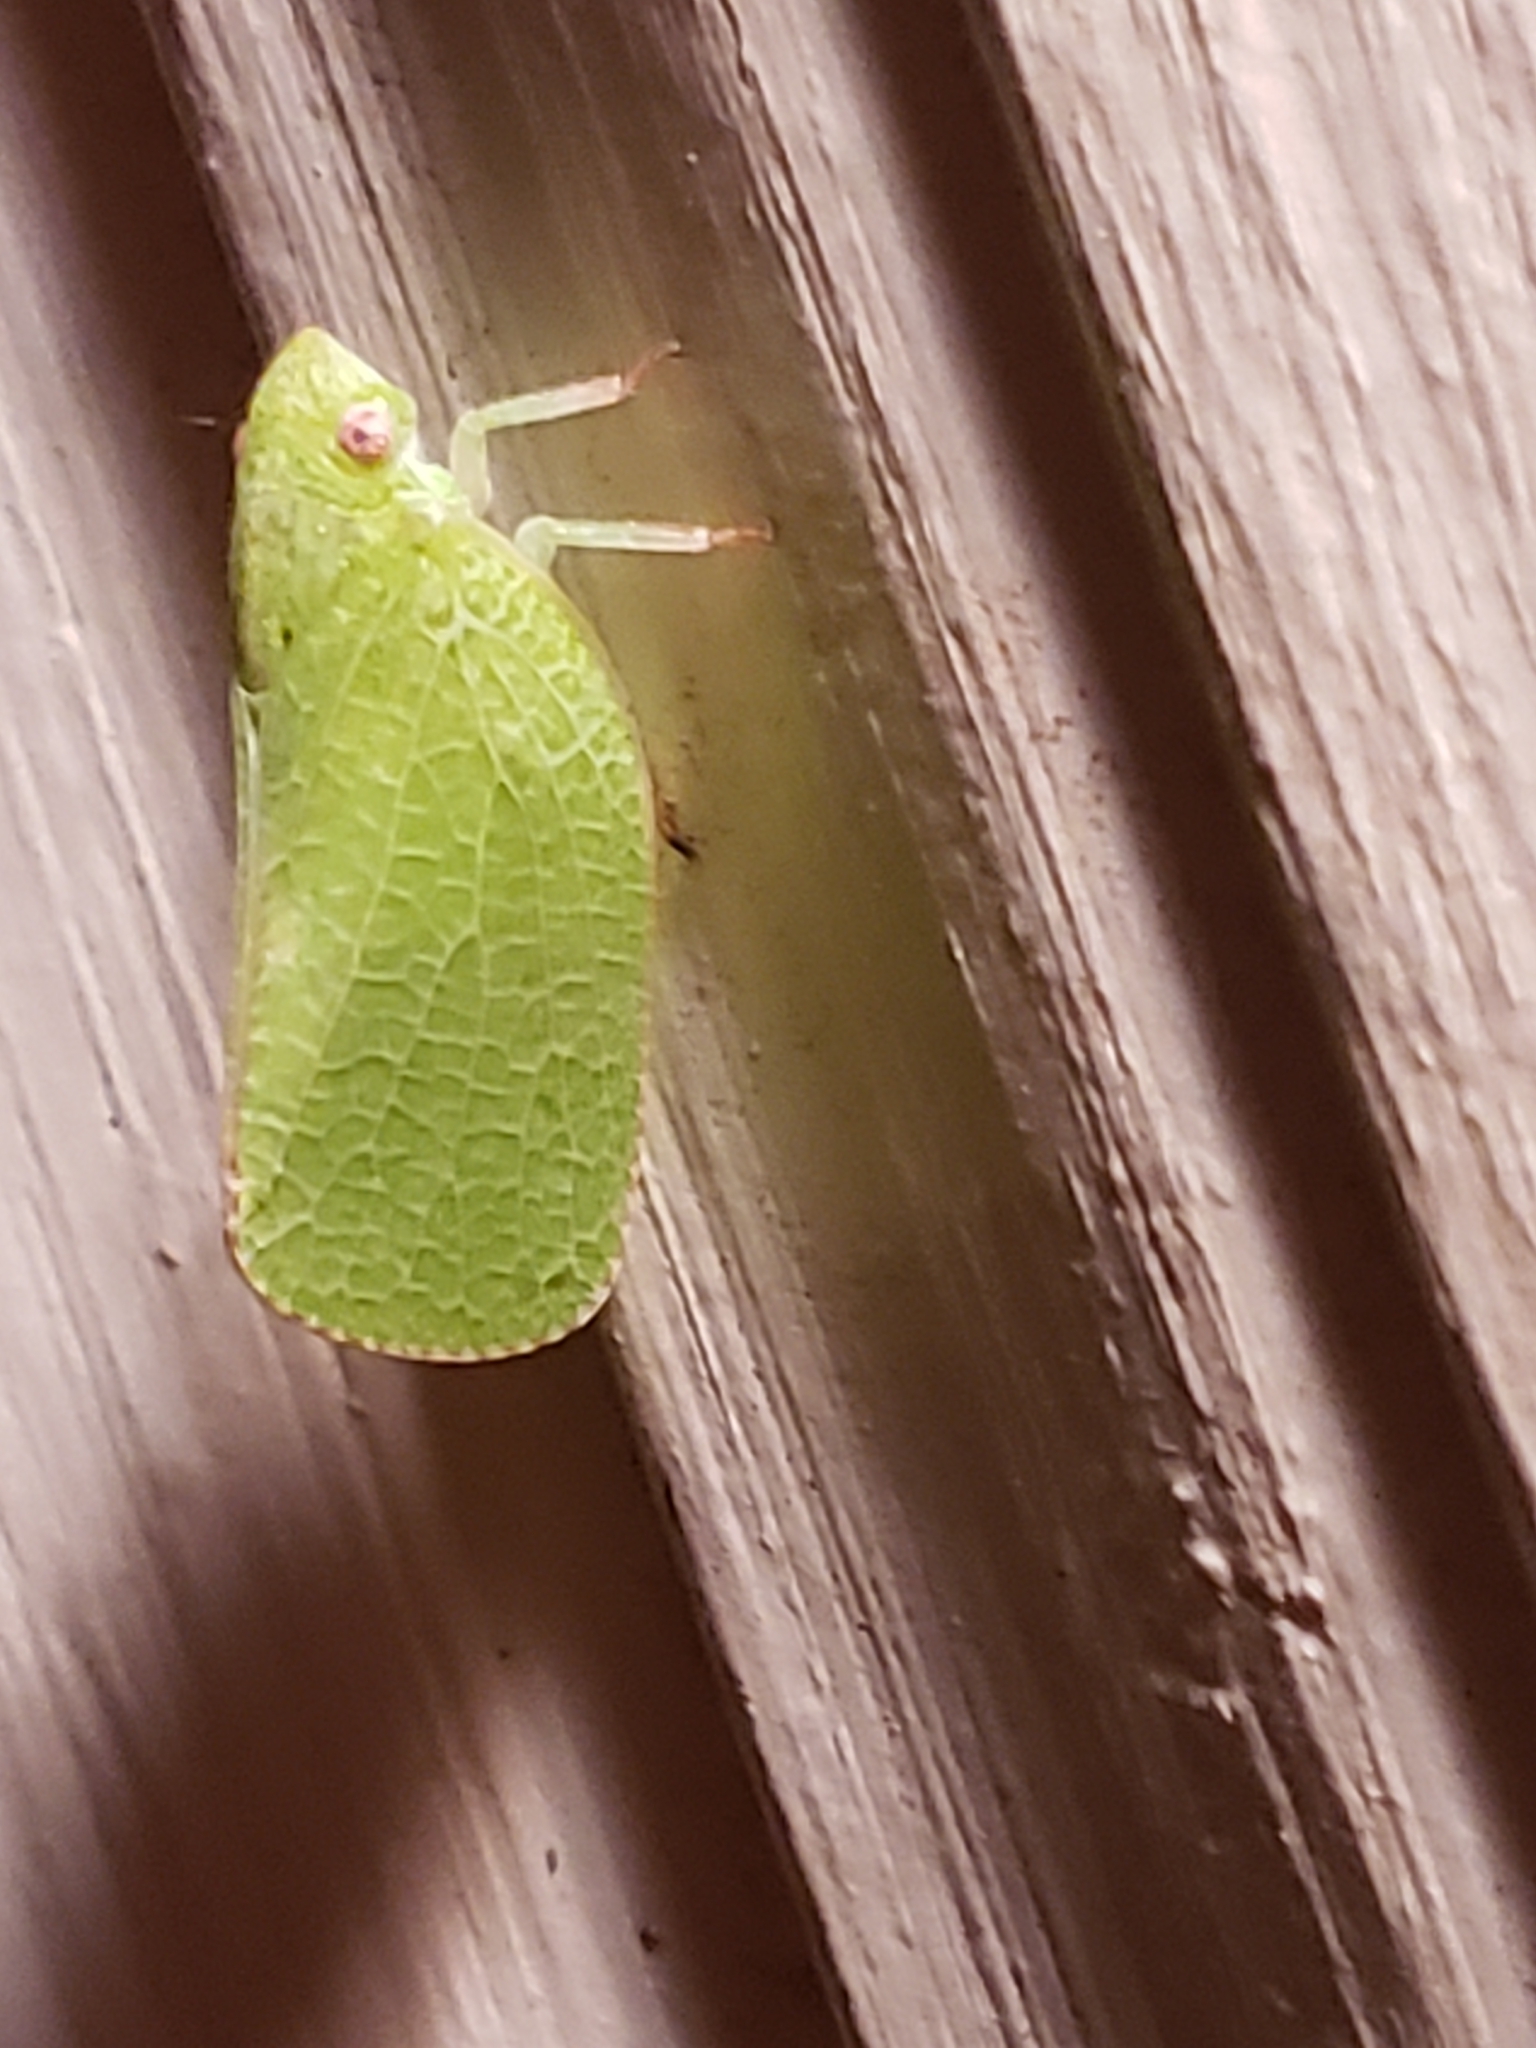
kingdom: Animalia
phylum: Arthropoda
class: Insecta
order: Hemiptera
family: Acanaloniidae
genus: Acanalonia
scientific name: Acanalonia conica
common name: Green cone-headed planthopper
